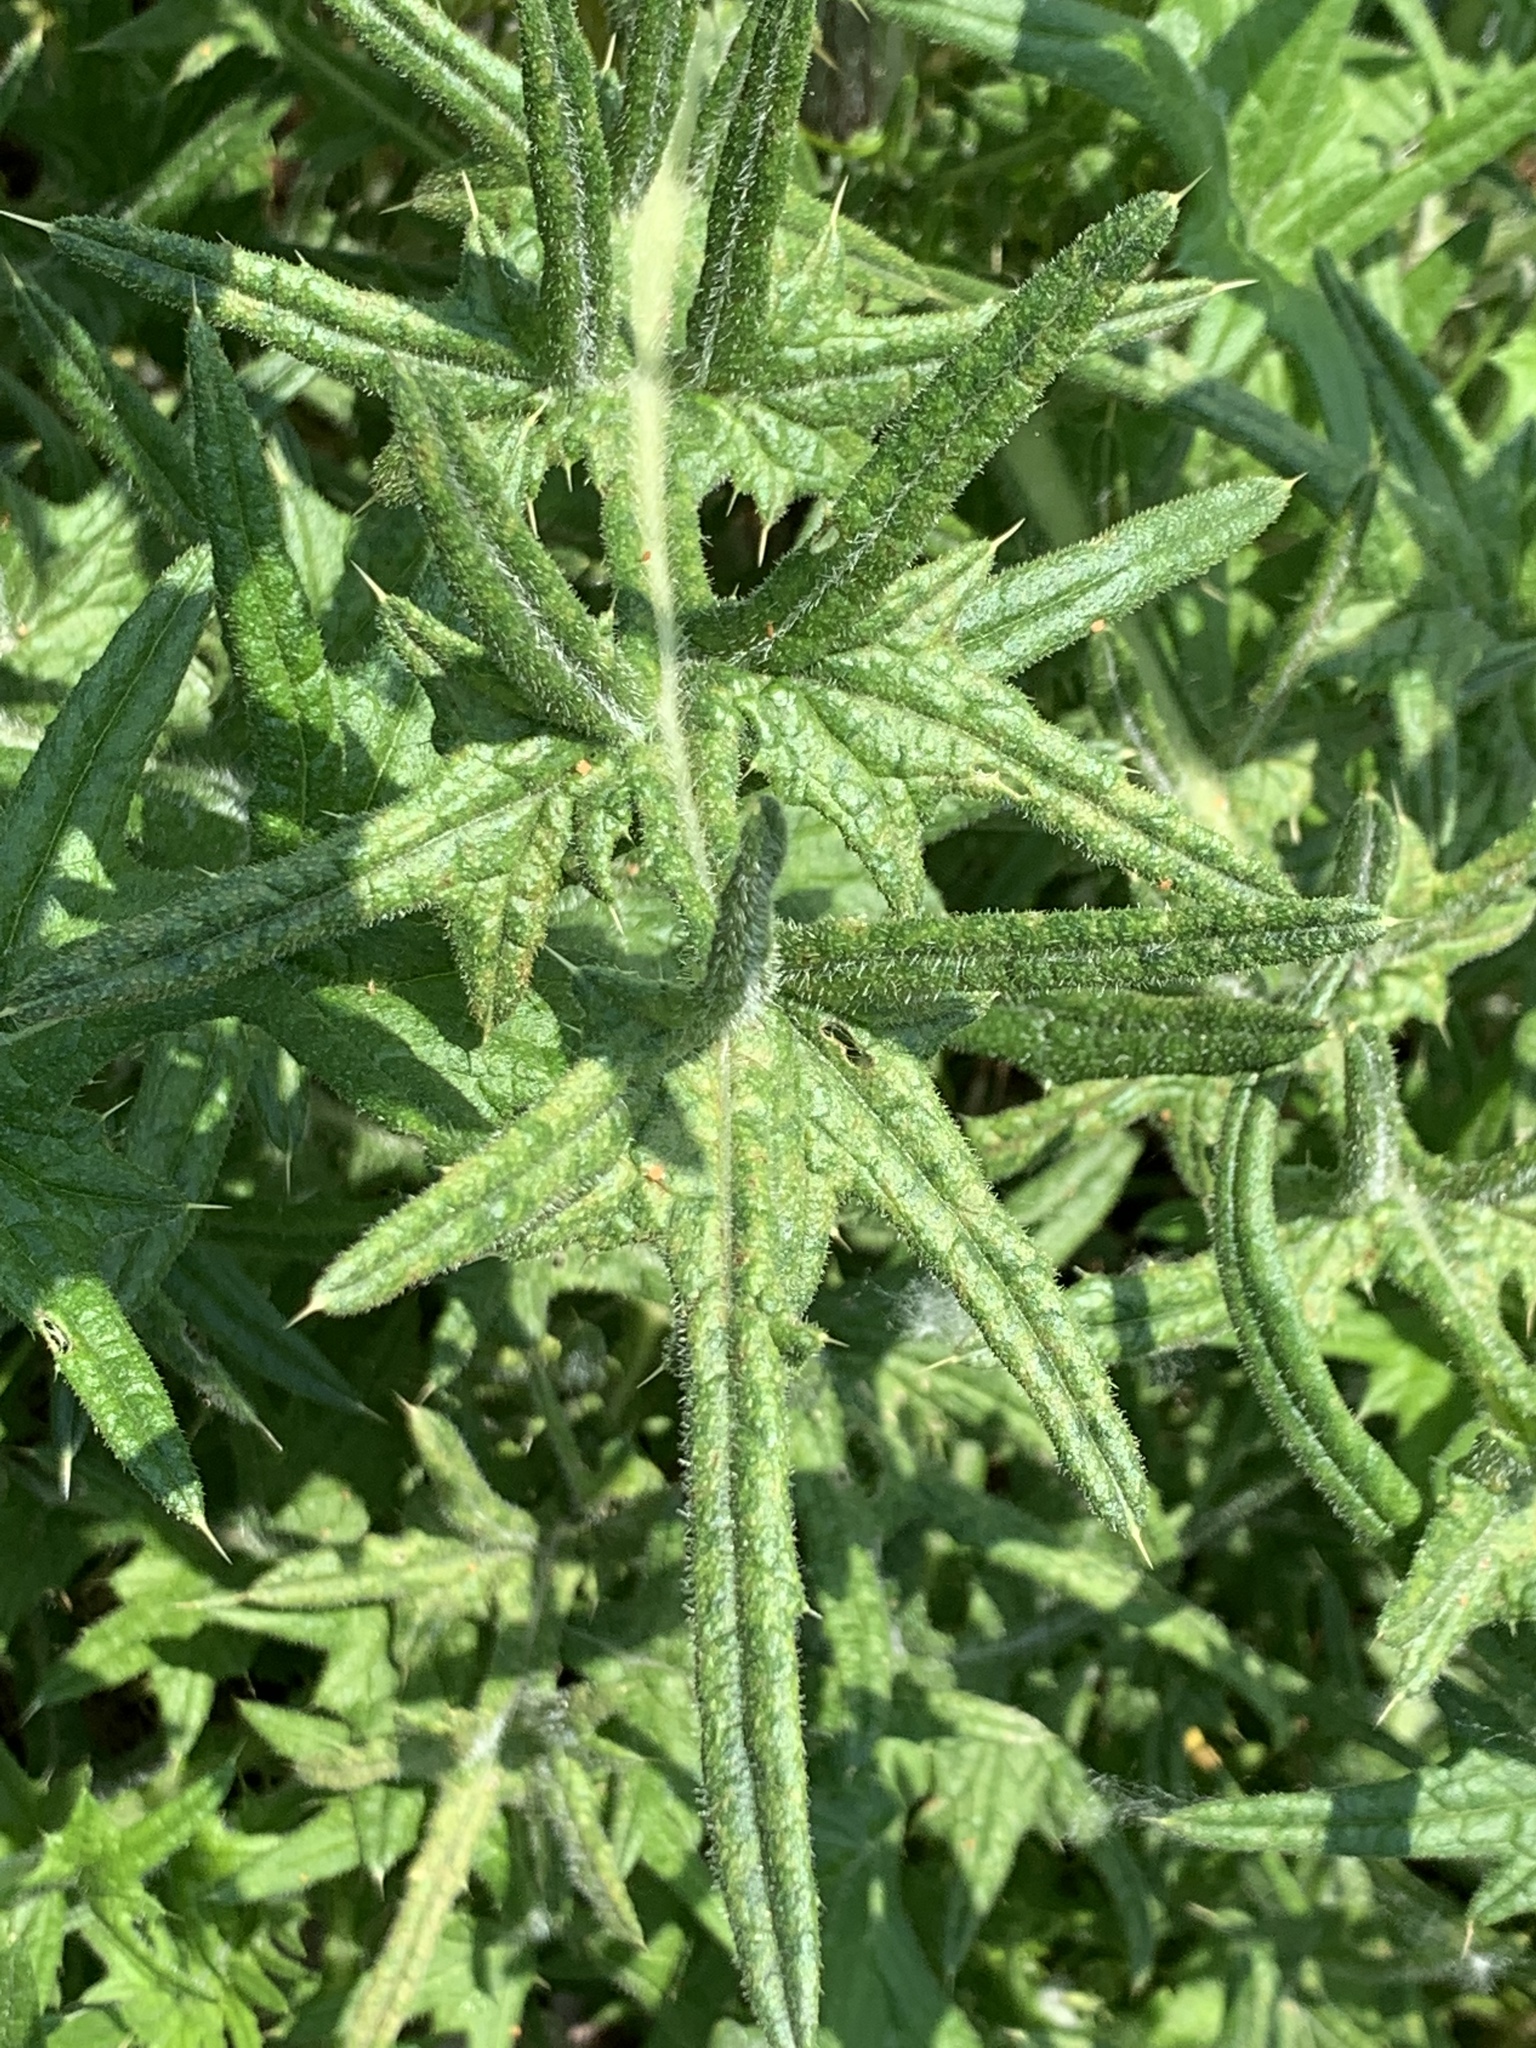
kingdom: Plantae
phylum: Tracheophyta
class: Magnoliopsida
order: Asterales
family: Asteraceae
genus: Cirsium
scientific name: Cirsium vulgare
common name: Bull thistle
